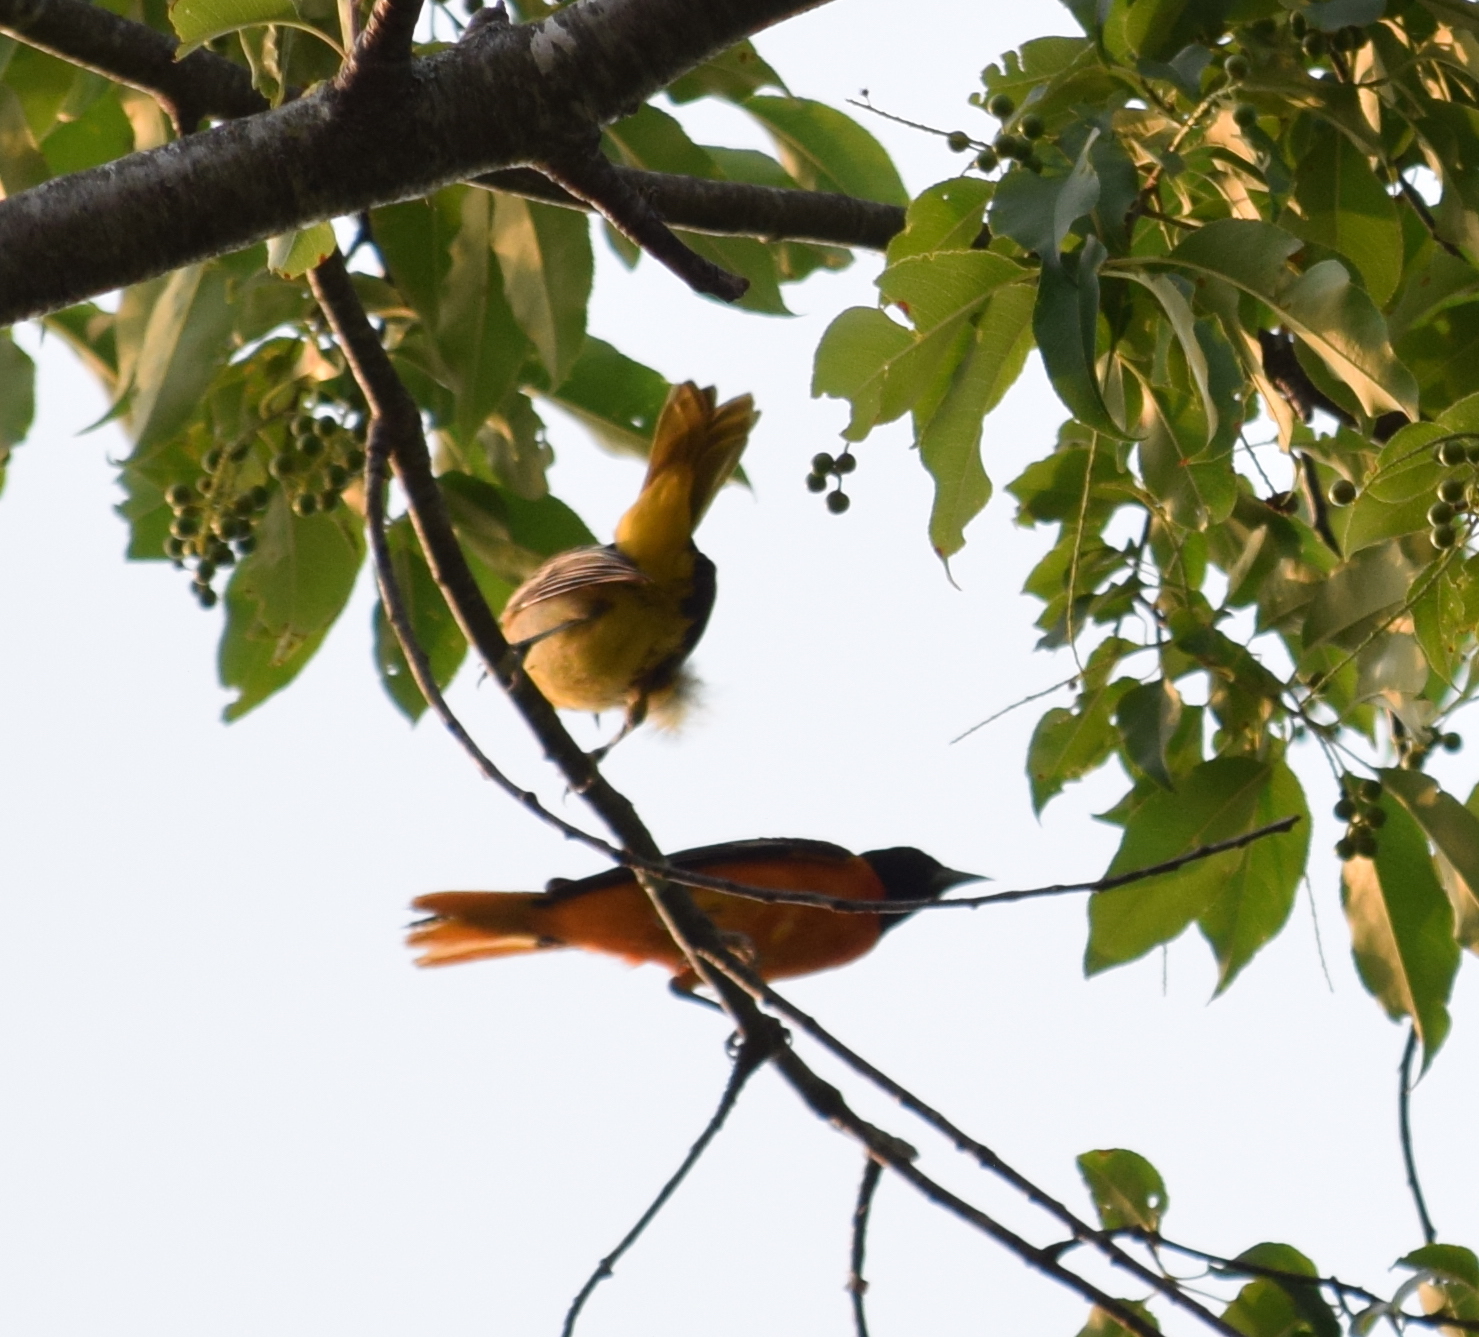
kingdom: Animalia
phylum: Chordata
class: Aves
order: Passeriformes
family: Icteridae
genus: Icterus
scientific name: Icterus galbula
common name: Baltimore oriole
